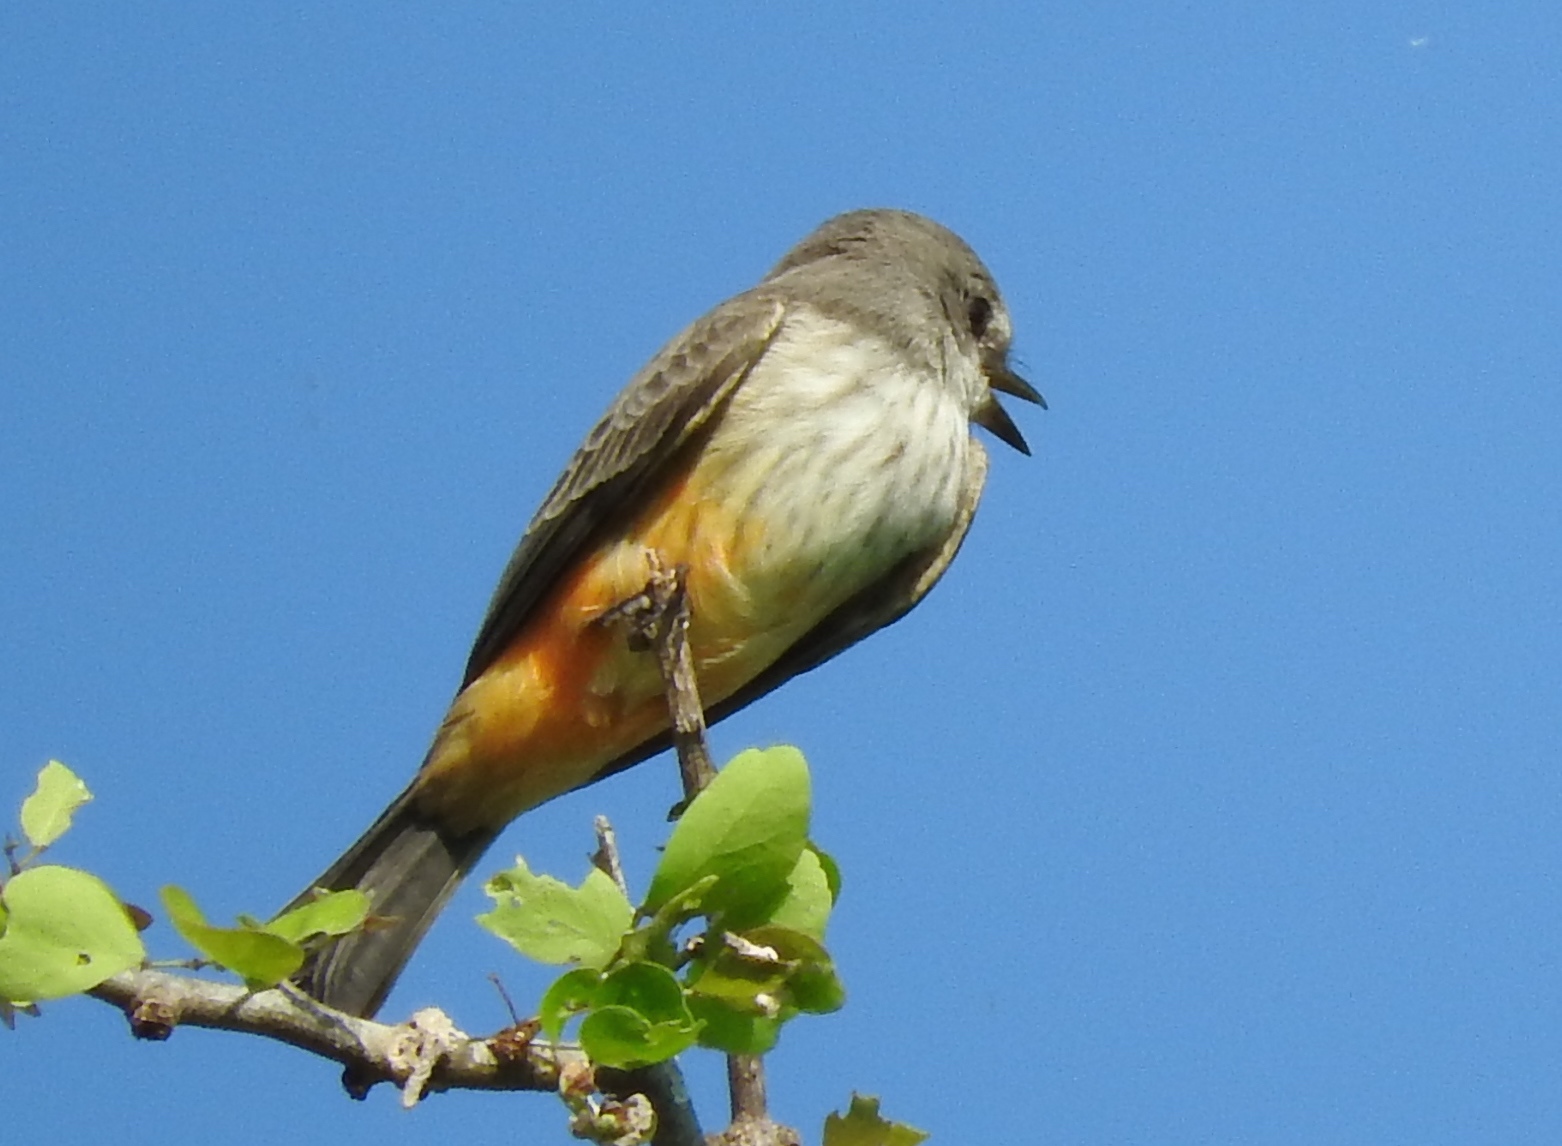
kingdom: Animalia
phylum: Chordata
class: Aves
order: Passeriformes
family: Tyrannidae
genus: Pyrocephalus
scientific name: Pyrocephalus rubinus
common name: Vermilion flycatcher
